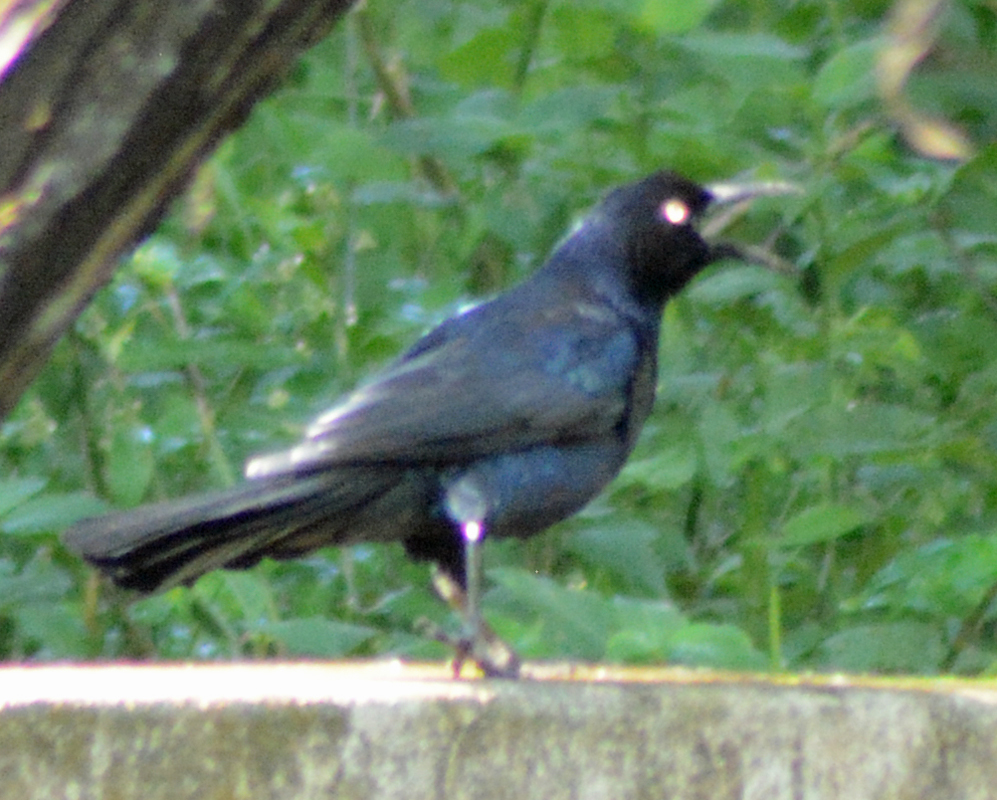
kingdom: Animalia
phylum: Chordata
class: Aves
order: Passeriformes
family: Icteridae
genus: Quiscalus
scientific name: Quiscalus mexicanus
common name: Great-tailed grackle
